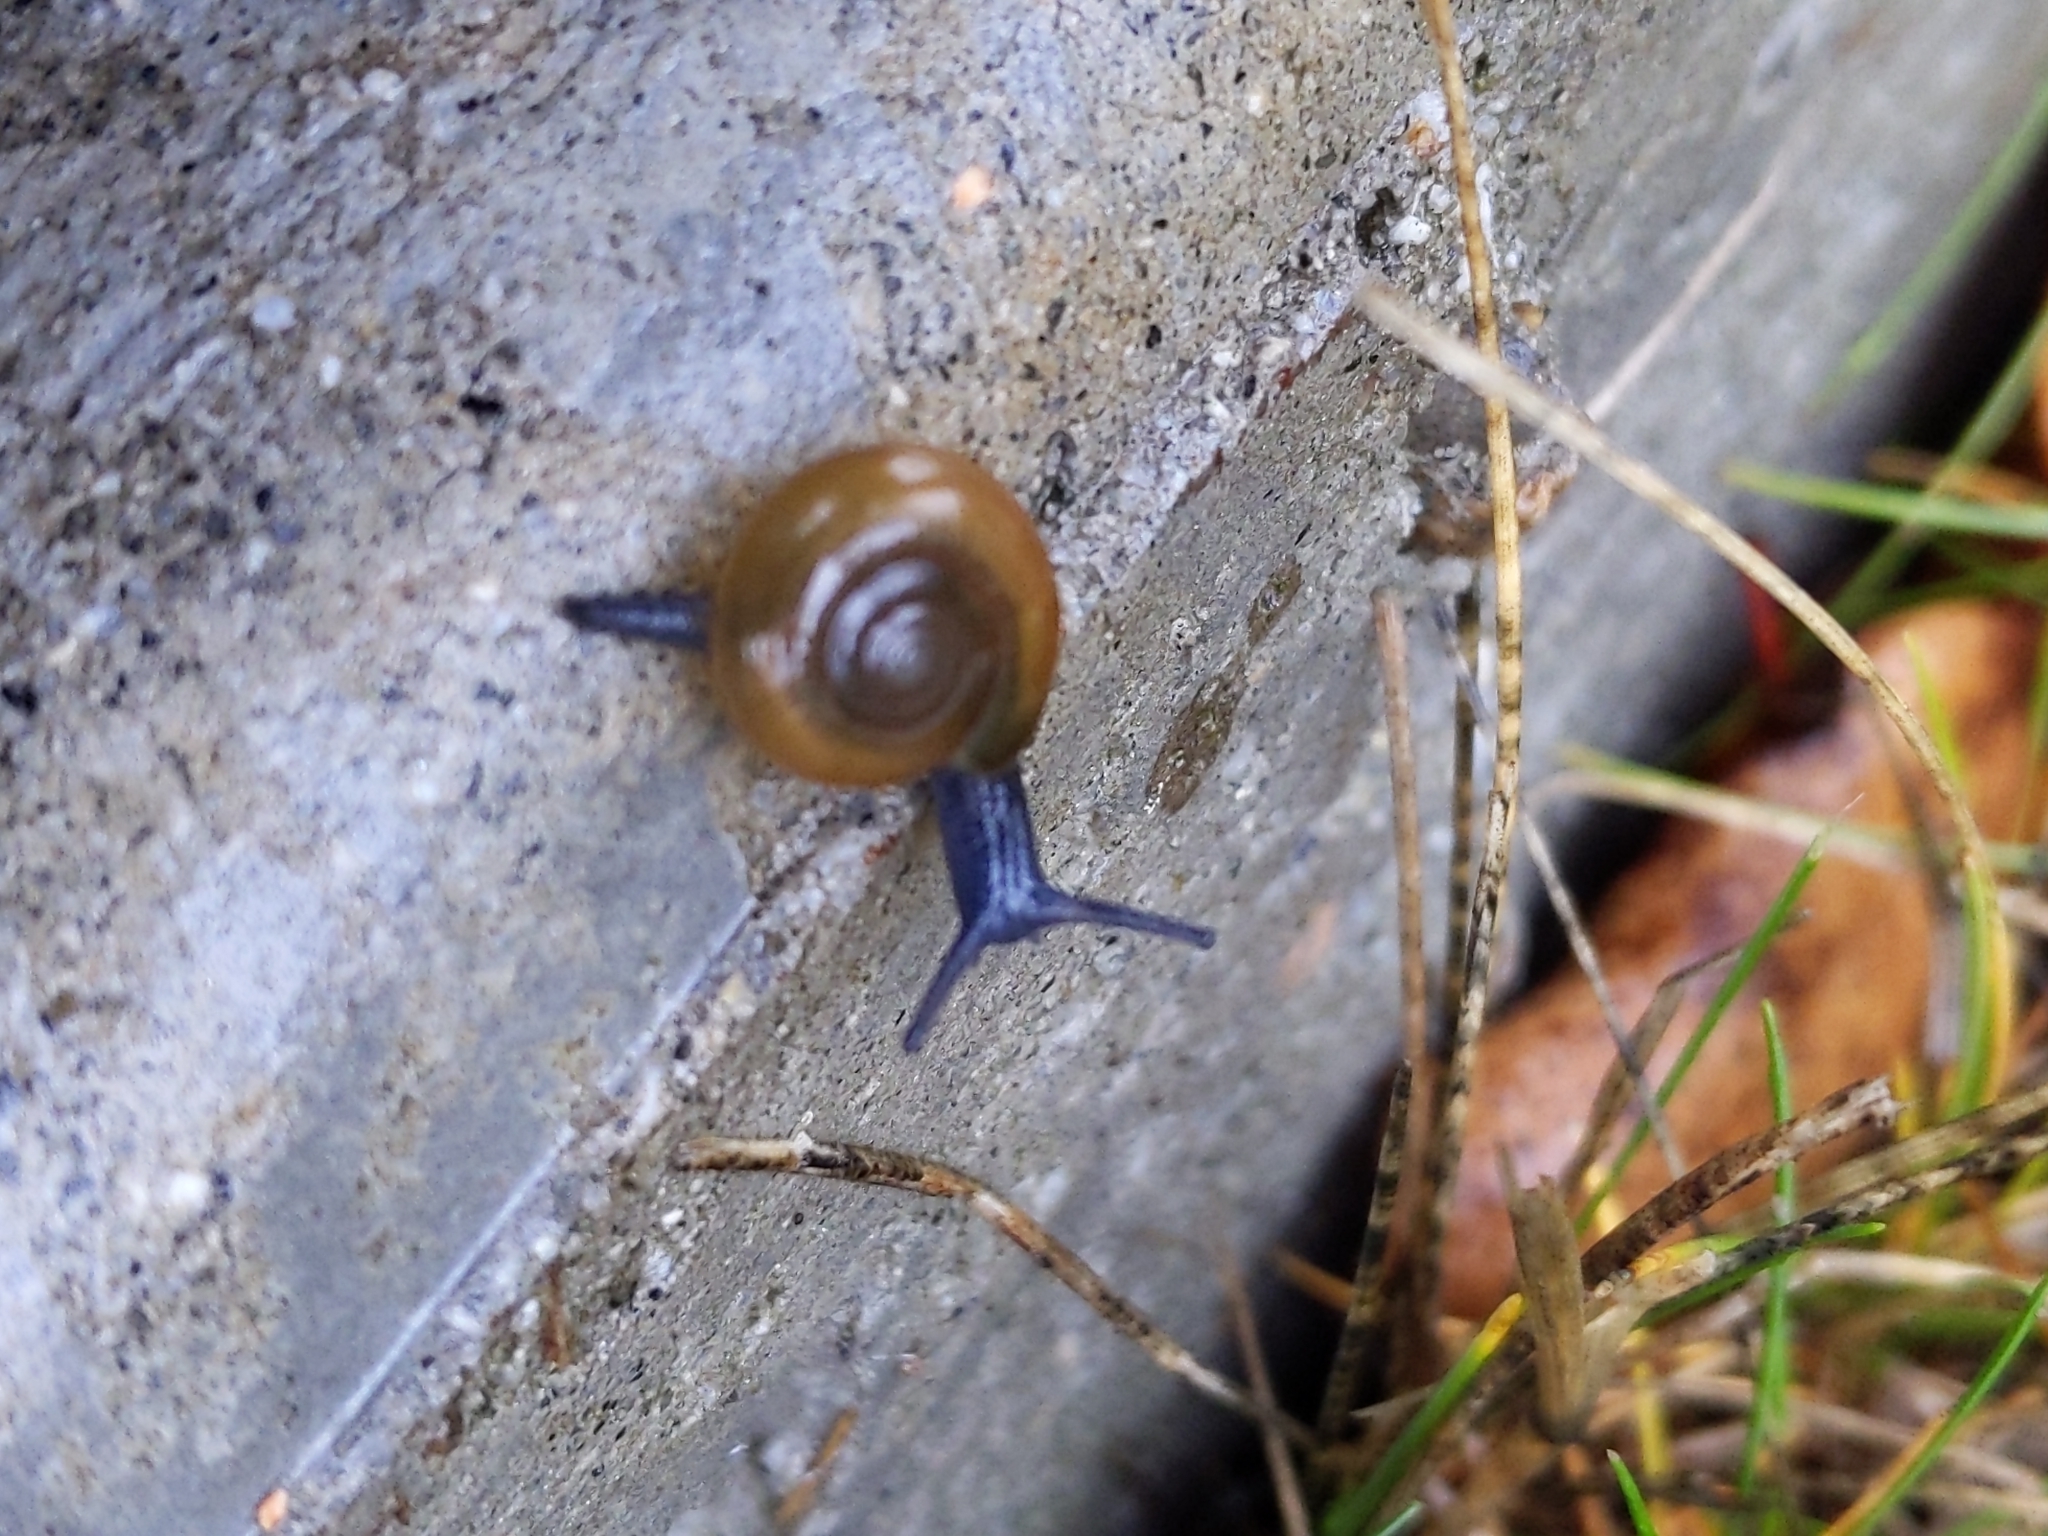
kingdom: Animalia
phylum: Mollusca
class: Gastropoda
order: Stylommatophora
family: Oxychilidae
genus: Oxychilus
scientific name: Oxychilus
